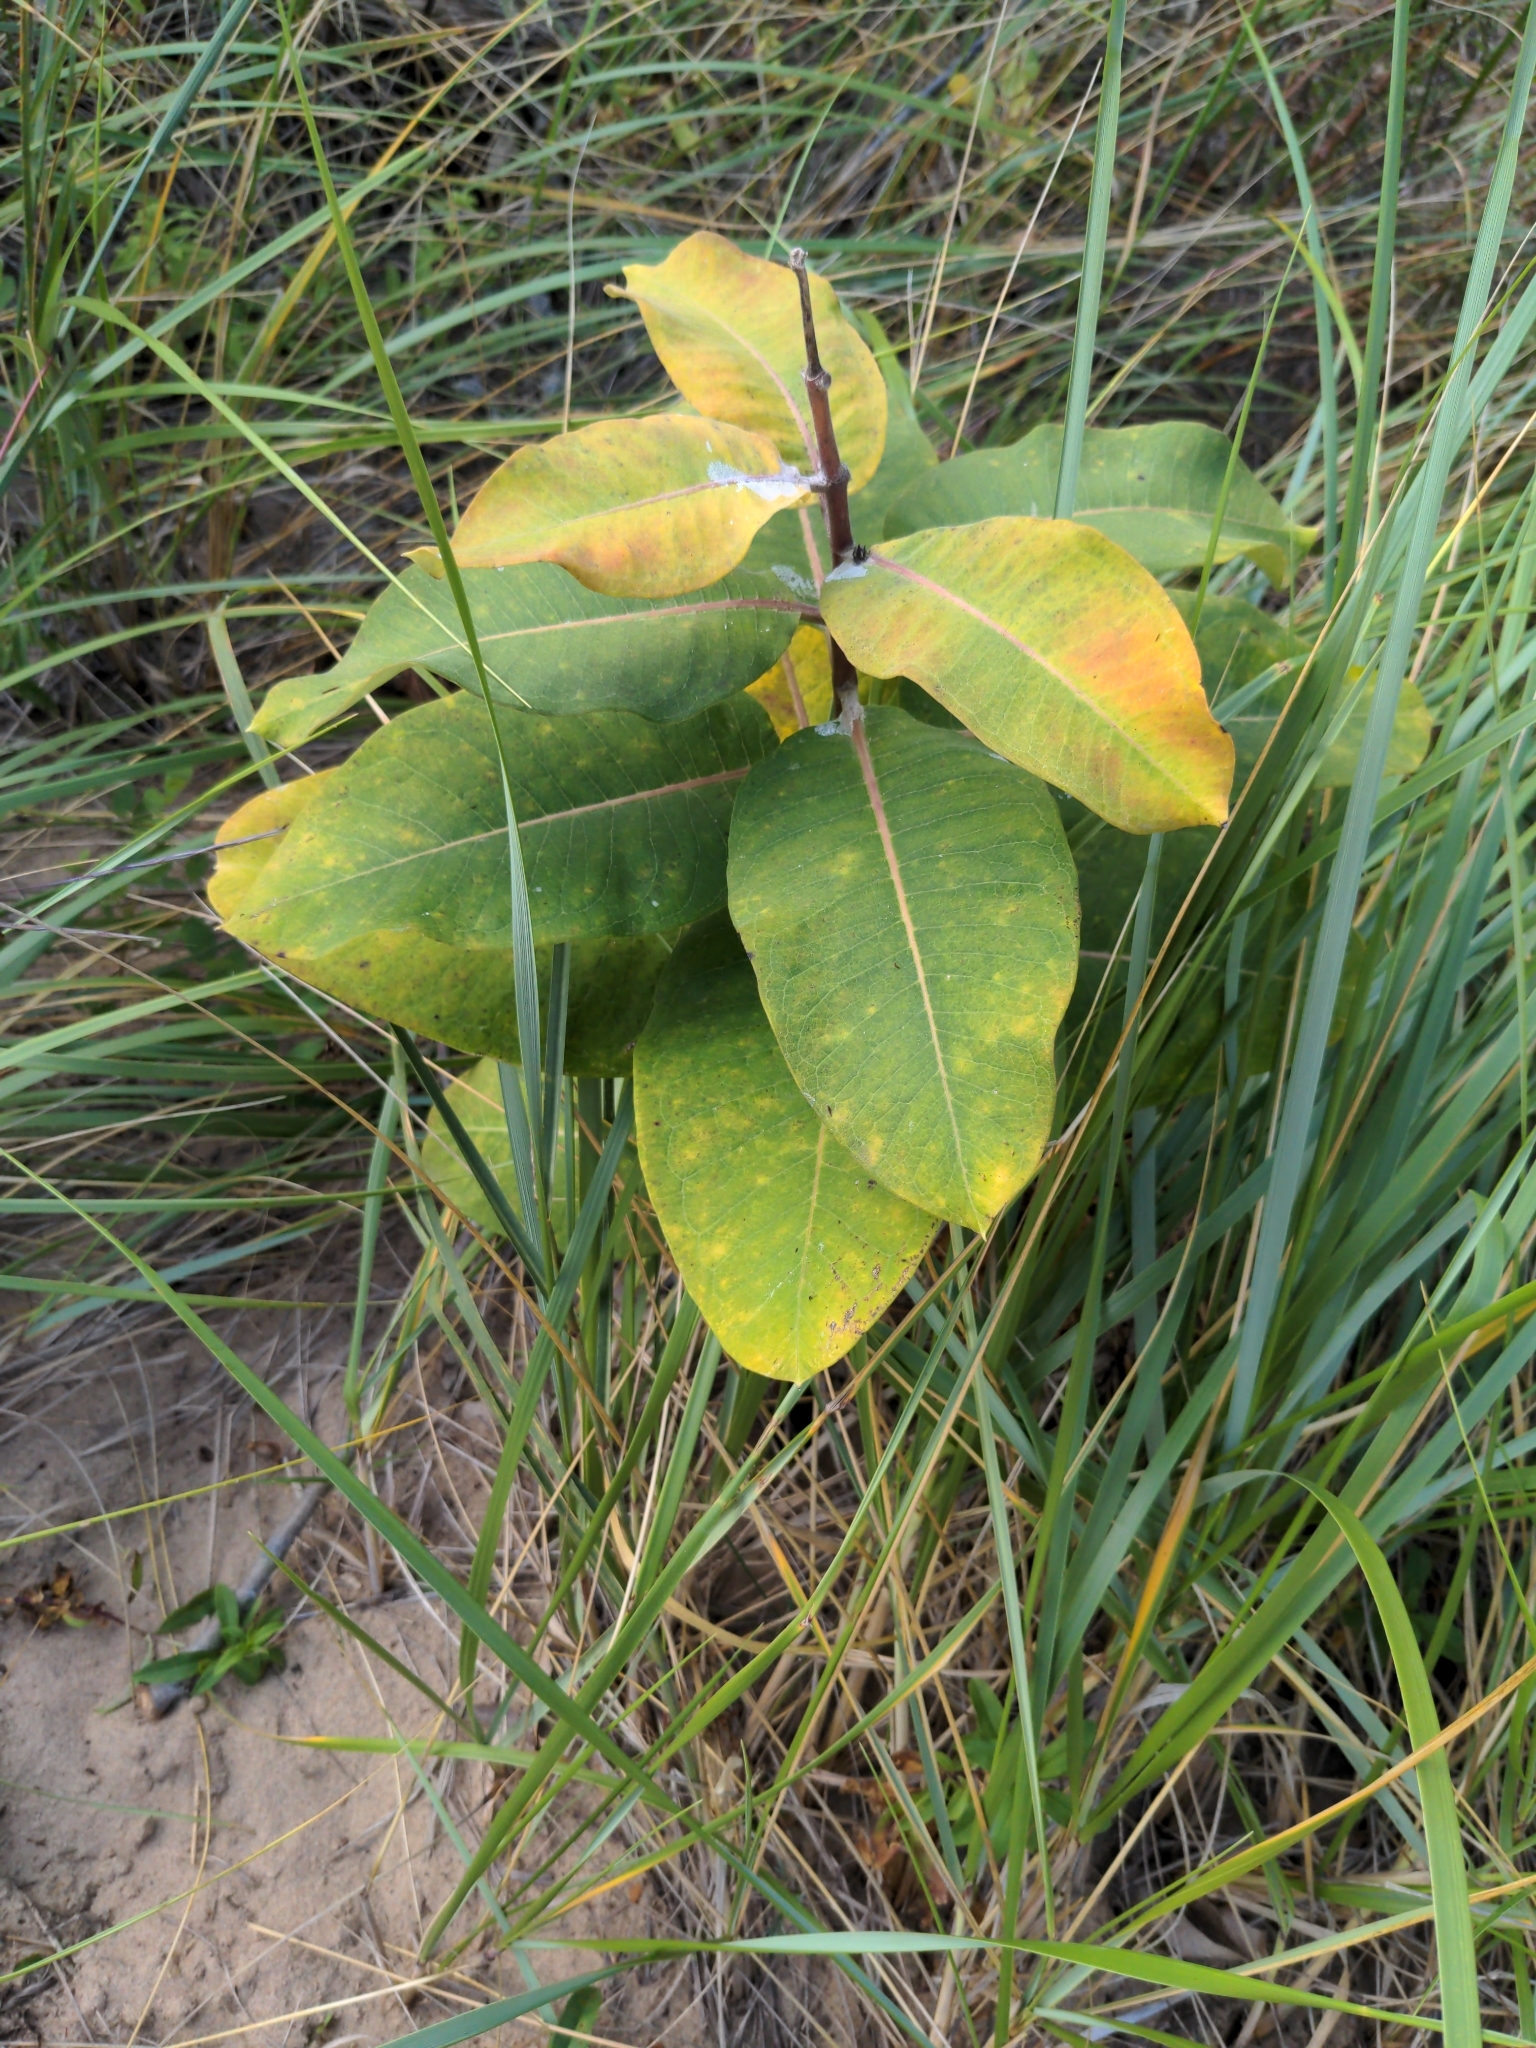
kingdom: Plantae
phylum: Tracheophyta
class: Magnoliopsida
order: Gentianales
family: Apocynaceae
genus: Asclepias
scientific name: Asclepias syriaca
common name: Common milkweed
